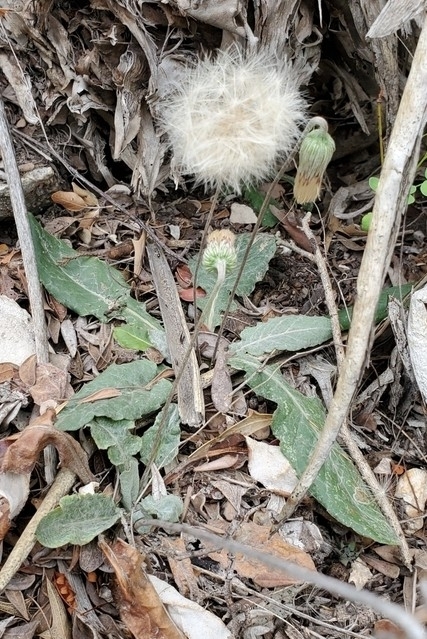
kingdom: Plantae
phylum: Tracheophyta
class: Magnoliopsida
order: Asterales
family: Asteraceae
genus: Chaptalia
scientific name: Chaptalia texana
